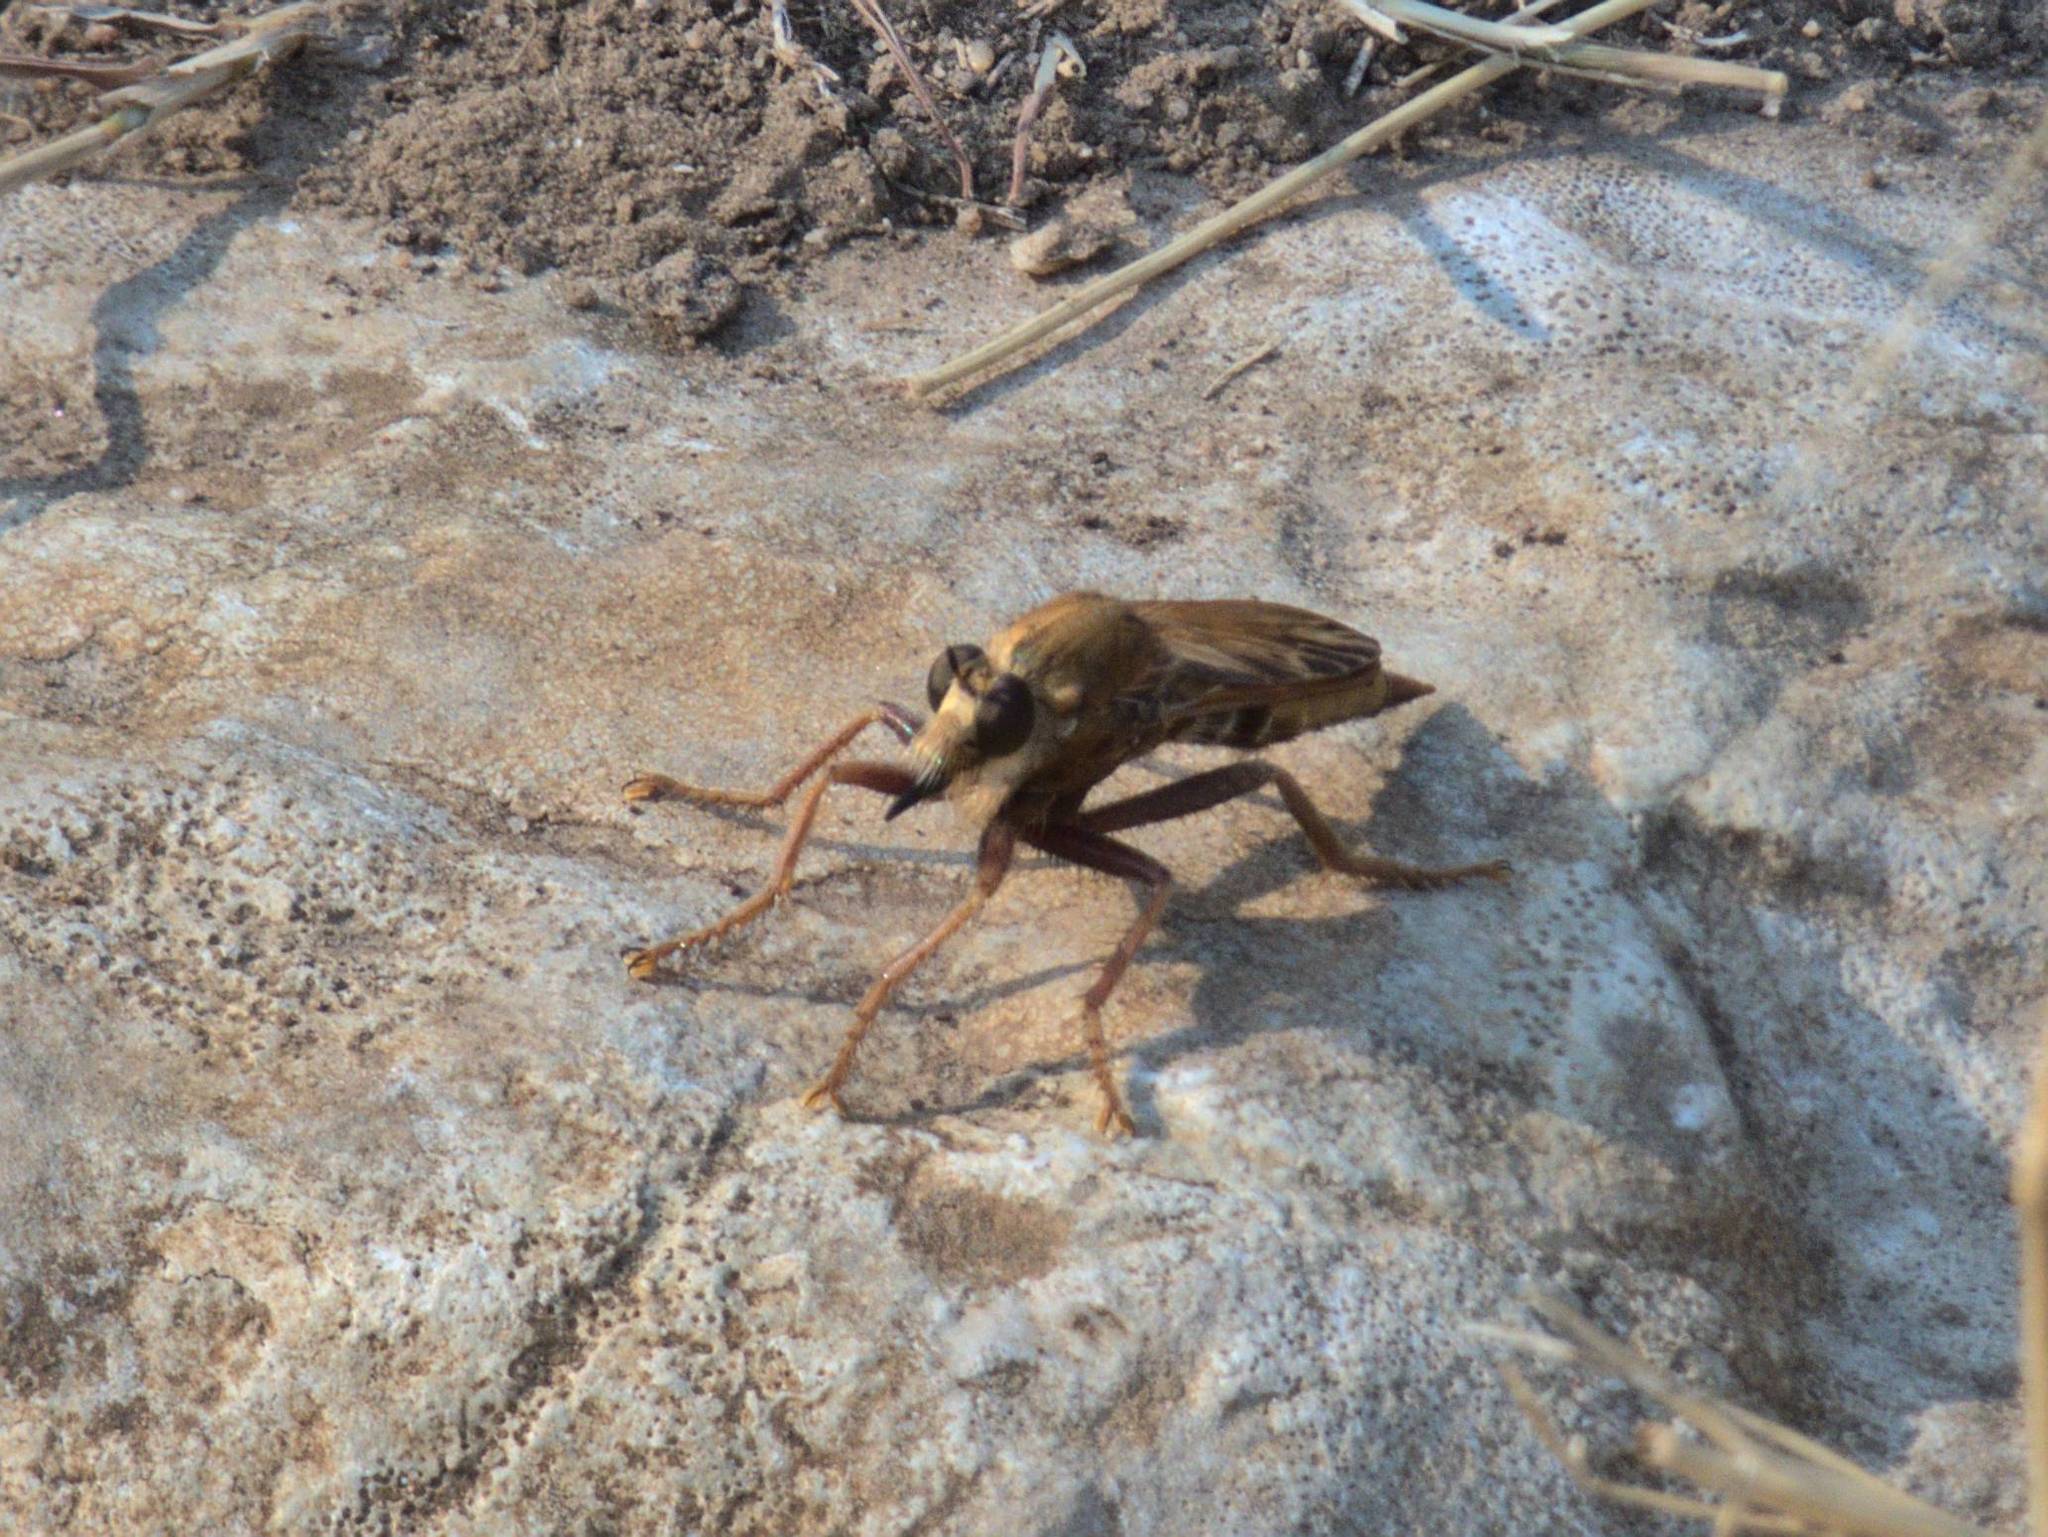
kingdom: Animalia
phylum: Arthropoda
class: Insecta
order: Diptera
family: Asilidae
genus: Asilus
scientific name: Asilus crabroniformis
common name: Hornet robberfly
